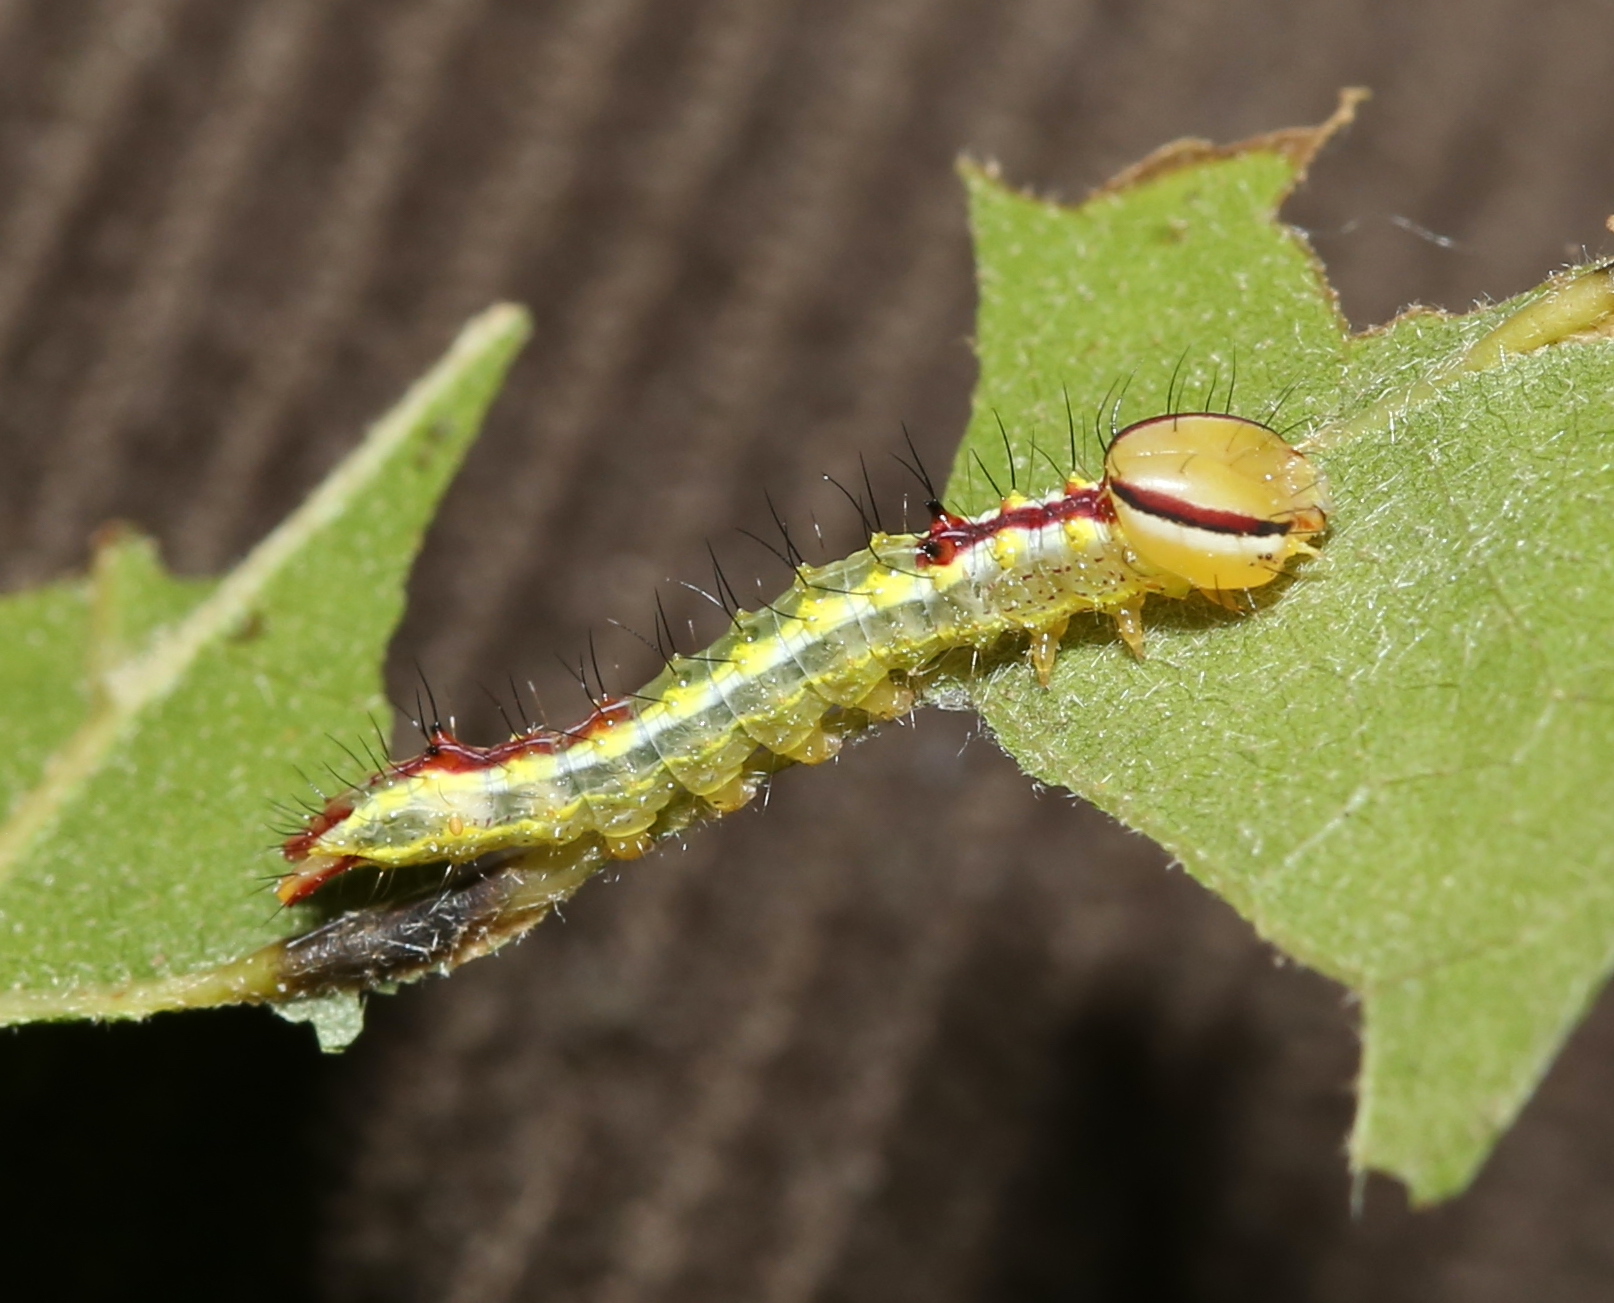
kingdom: Animalia
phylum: Arthropoda
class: Insecta
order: Lepidoptera
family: Notodontidae
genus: Lochmaeus
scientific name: Lochmaeus manteo
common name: Variable oakleaf caterpillar moth
